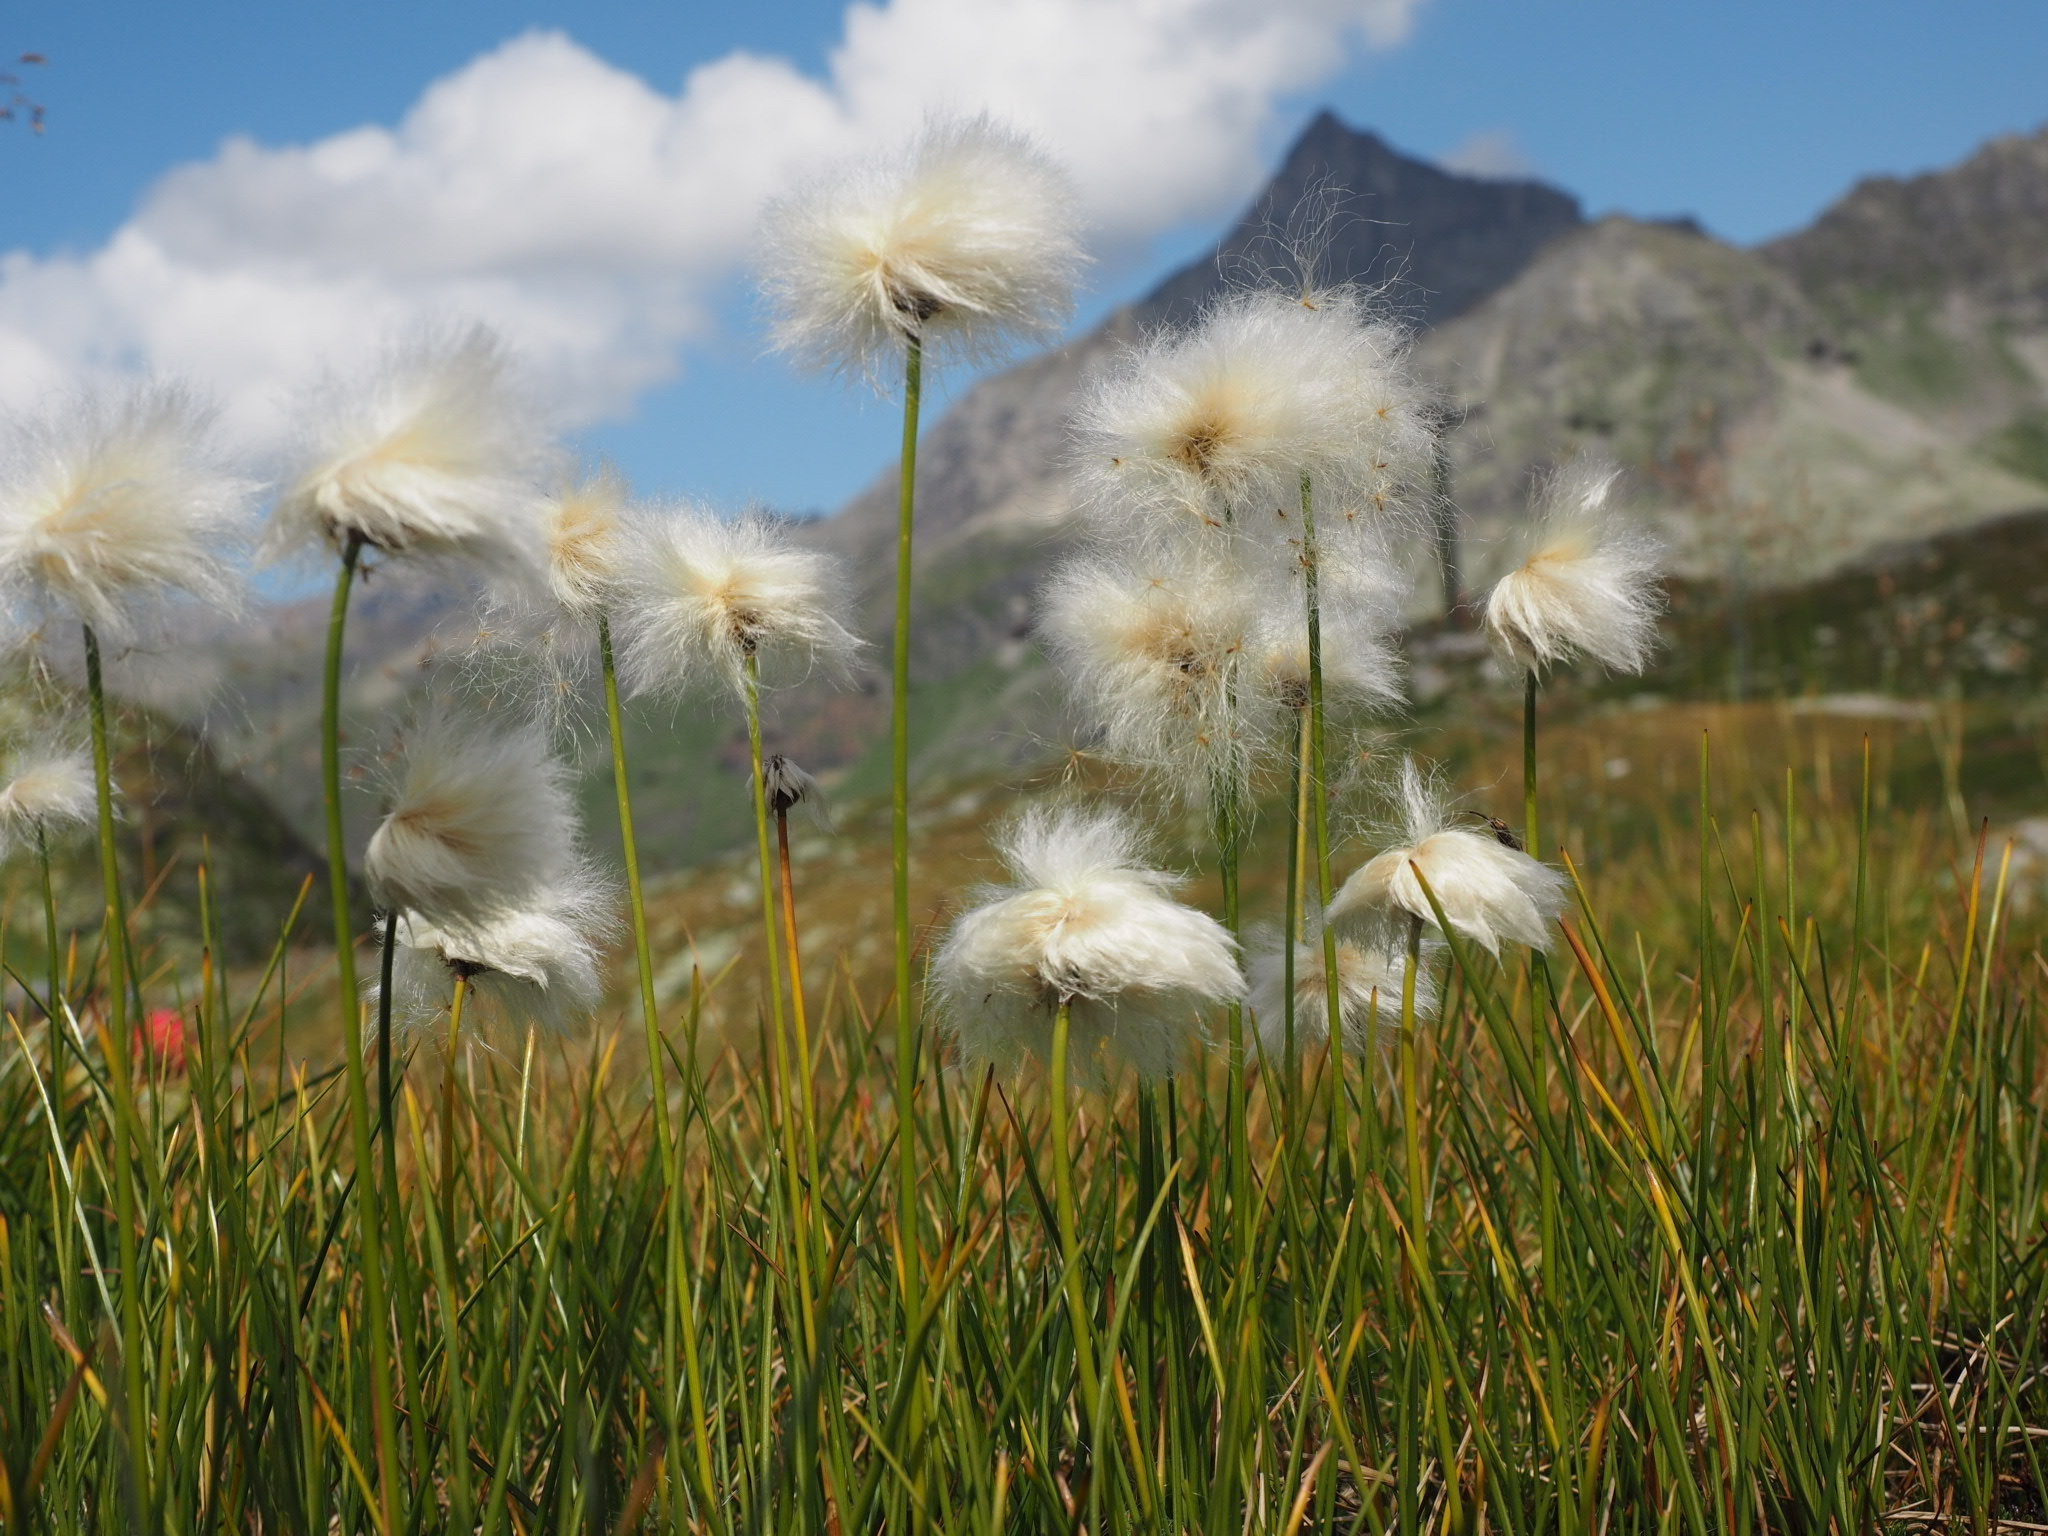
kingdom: Plantae
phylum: Tracheophyta
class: Liliopsida
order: Poales
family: Cyperaceae
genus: Eriophorum
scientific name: Eriophorum scheuchzeri
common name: Scheuchzer's cottongrass
